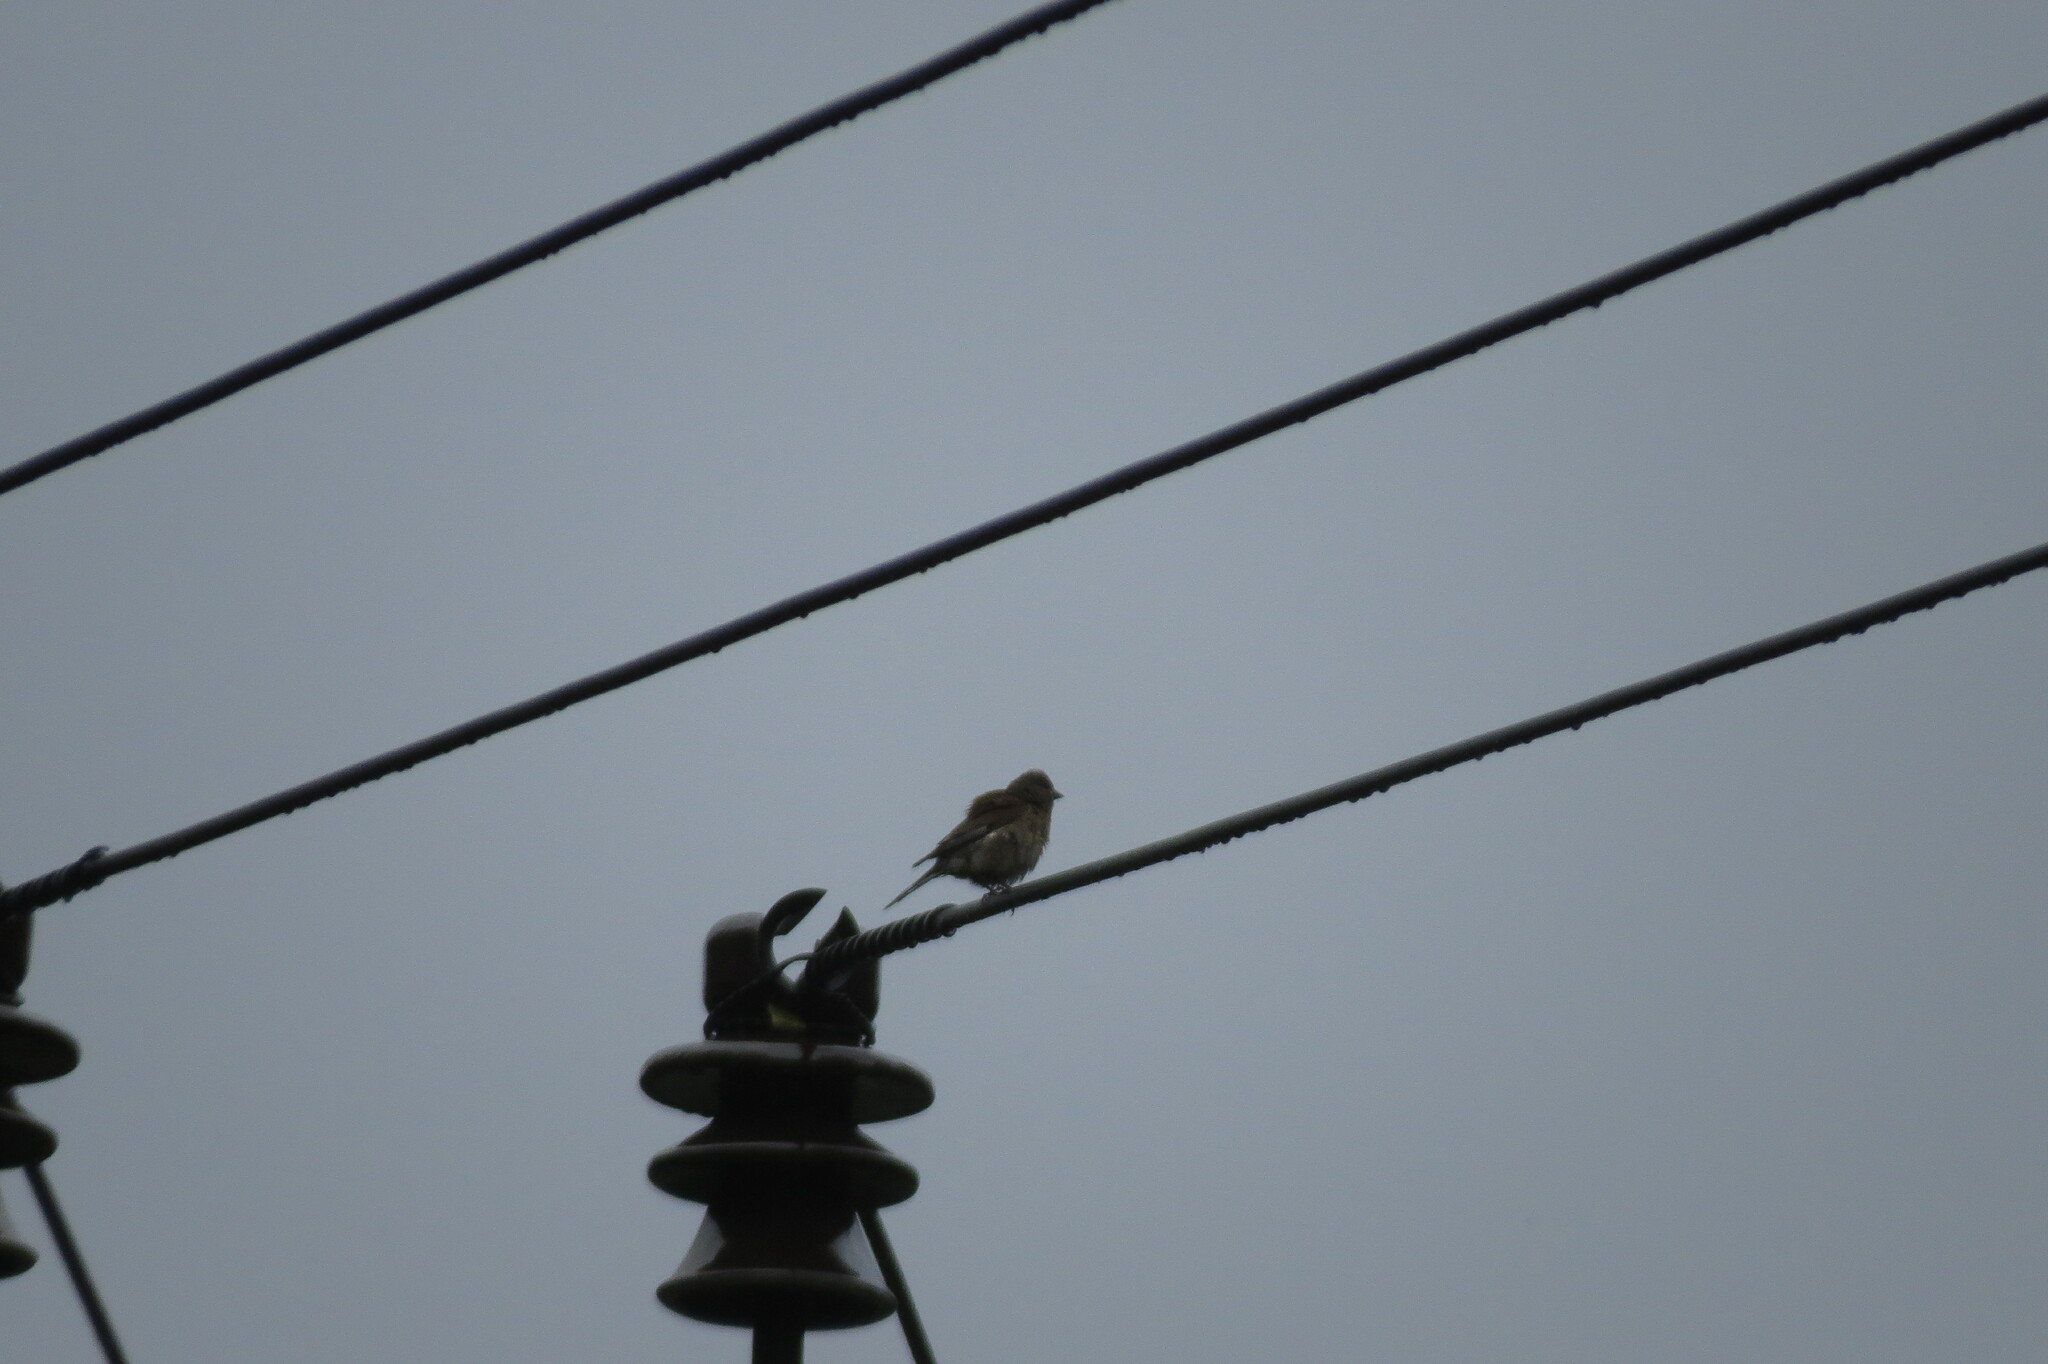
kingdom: Animalia
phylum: Chordata
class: Aves
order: Passeriformes
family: Fringillidae
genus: Linaria
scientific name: Linaria cannabina
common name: Common linnet
